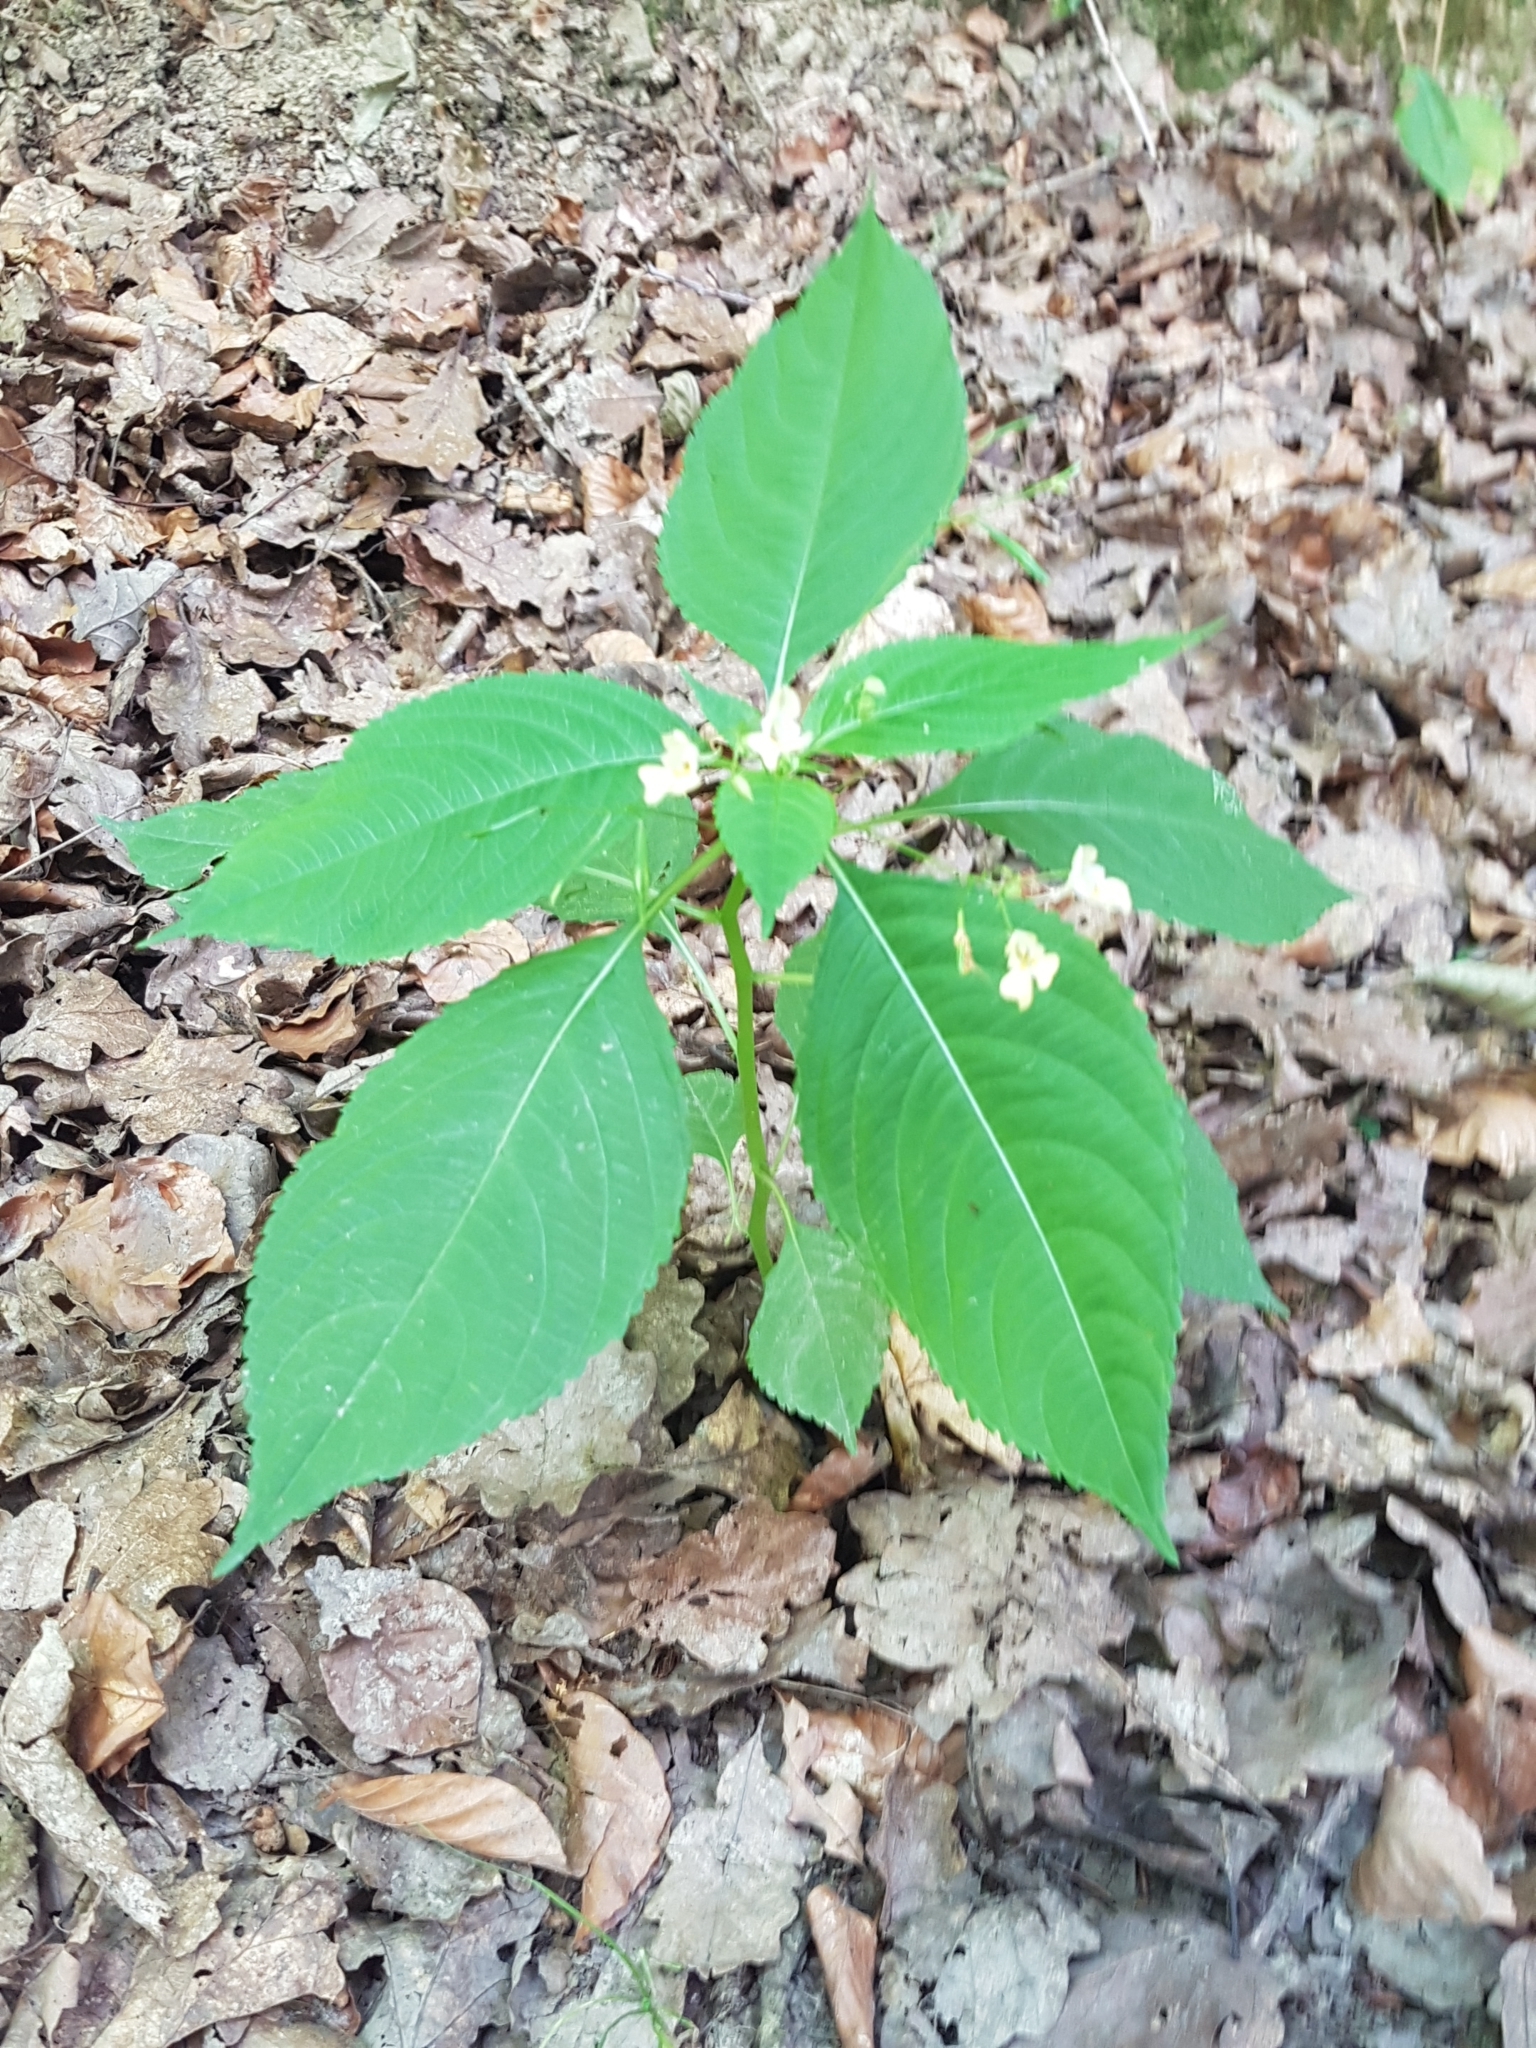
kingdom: Plantae
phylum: Tracheophyta
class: Magnoliopsida
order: Ericales
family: Balsaminaceae
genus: Impatiens
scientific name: Impatiens parviflora
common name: Small balsam
